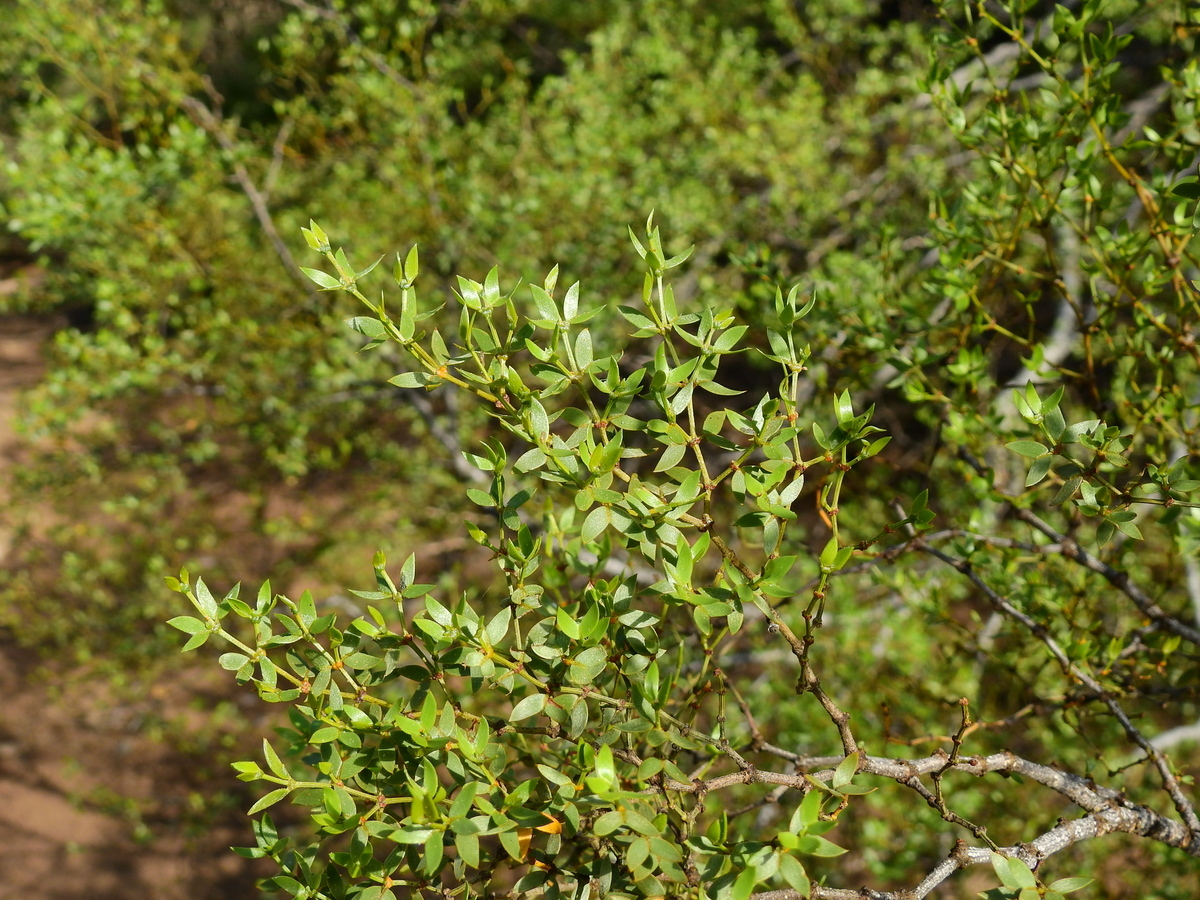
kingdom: Plantae
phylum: Tracheophyta
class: Magnoliopsida
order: Zygophyllales
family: Zygophyllaceae
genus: Larrea
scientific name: Larrea divaricata
